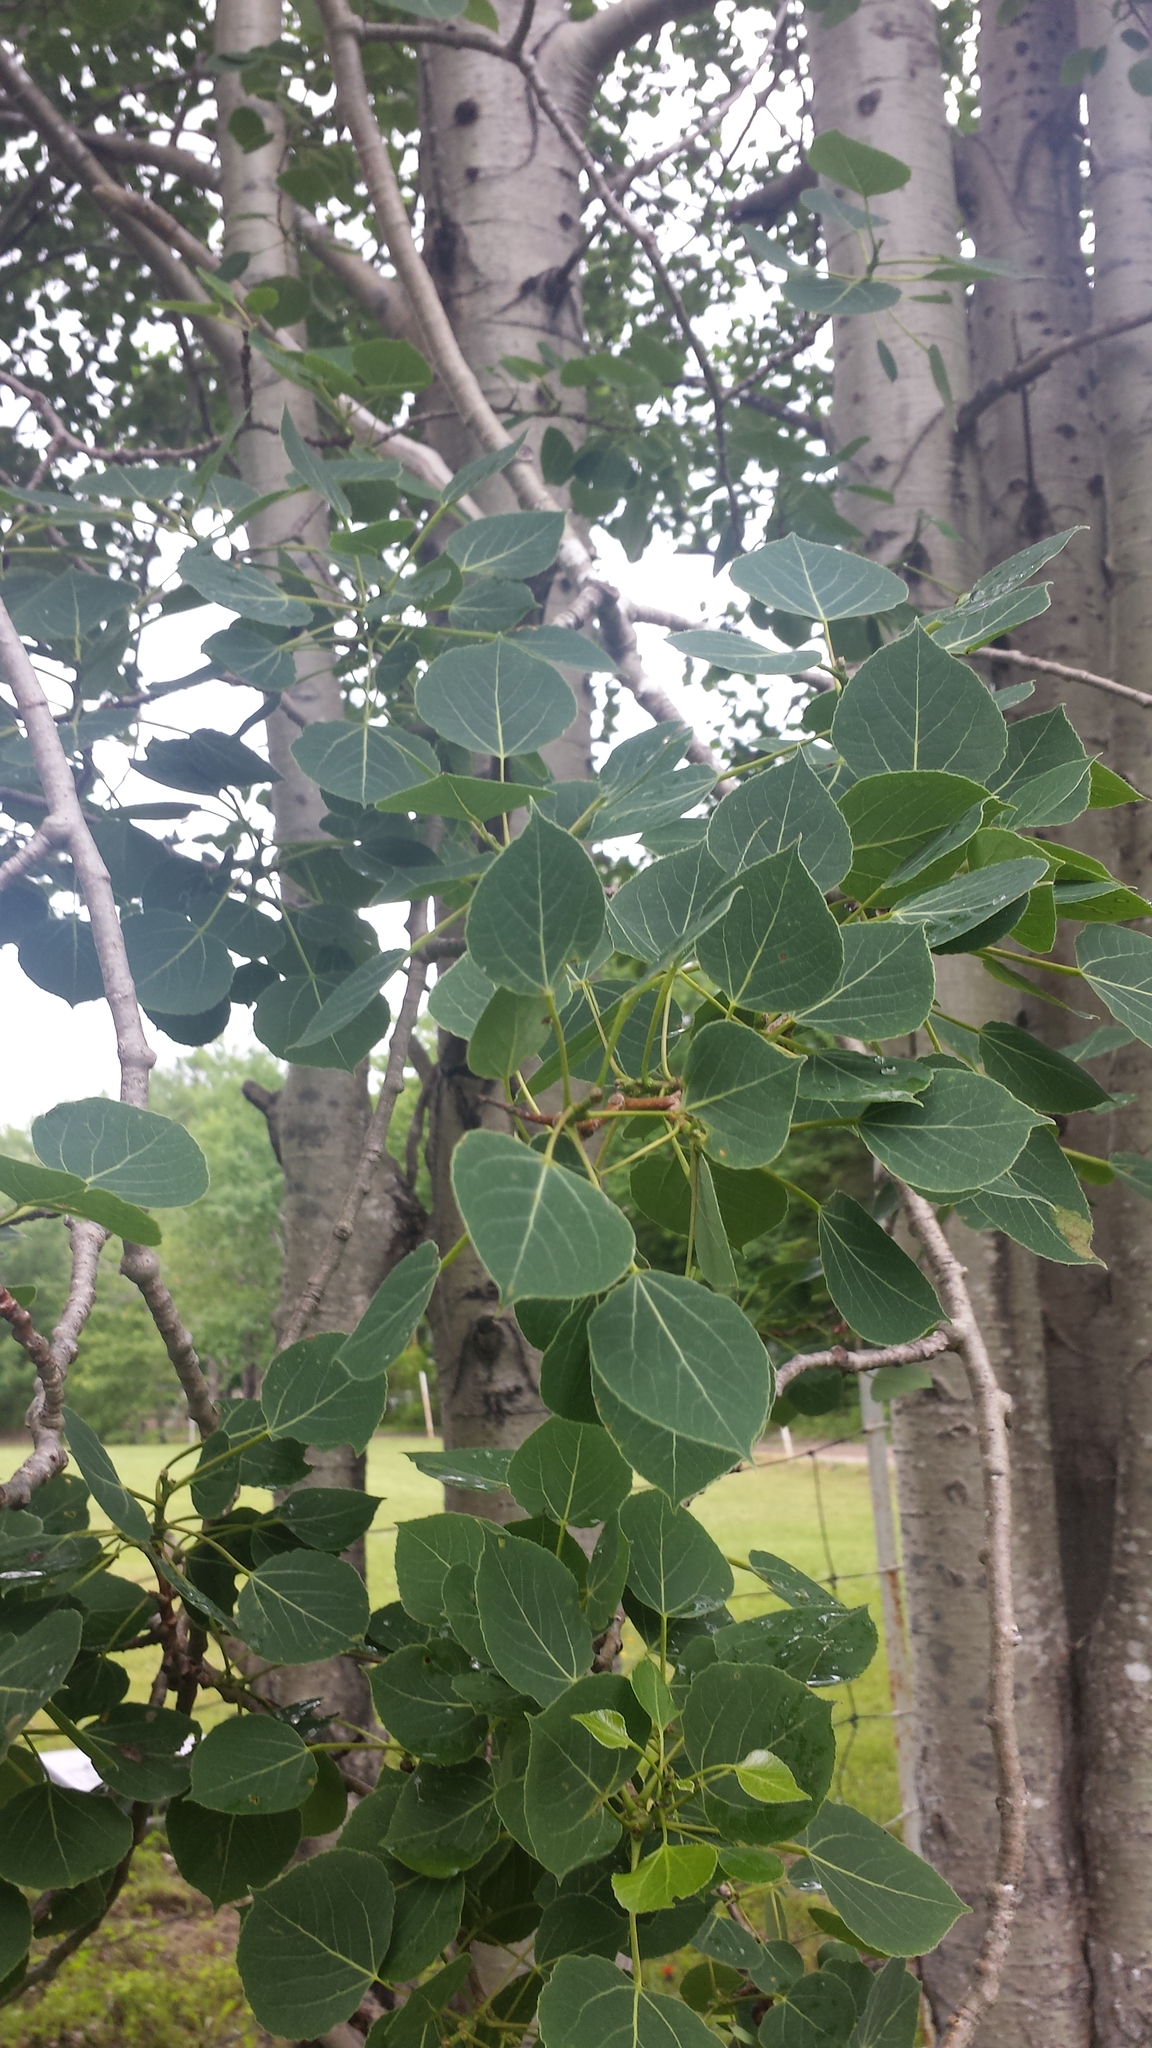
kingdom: Plantae
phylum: Tracheophyta
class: Magnoliopsida
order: Malpighiales
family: Salicaceae
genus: Populus
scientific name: Populus tremuloides
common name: Quaking aspen
